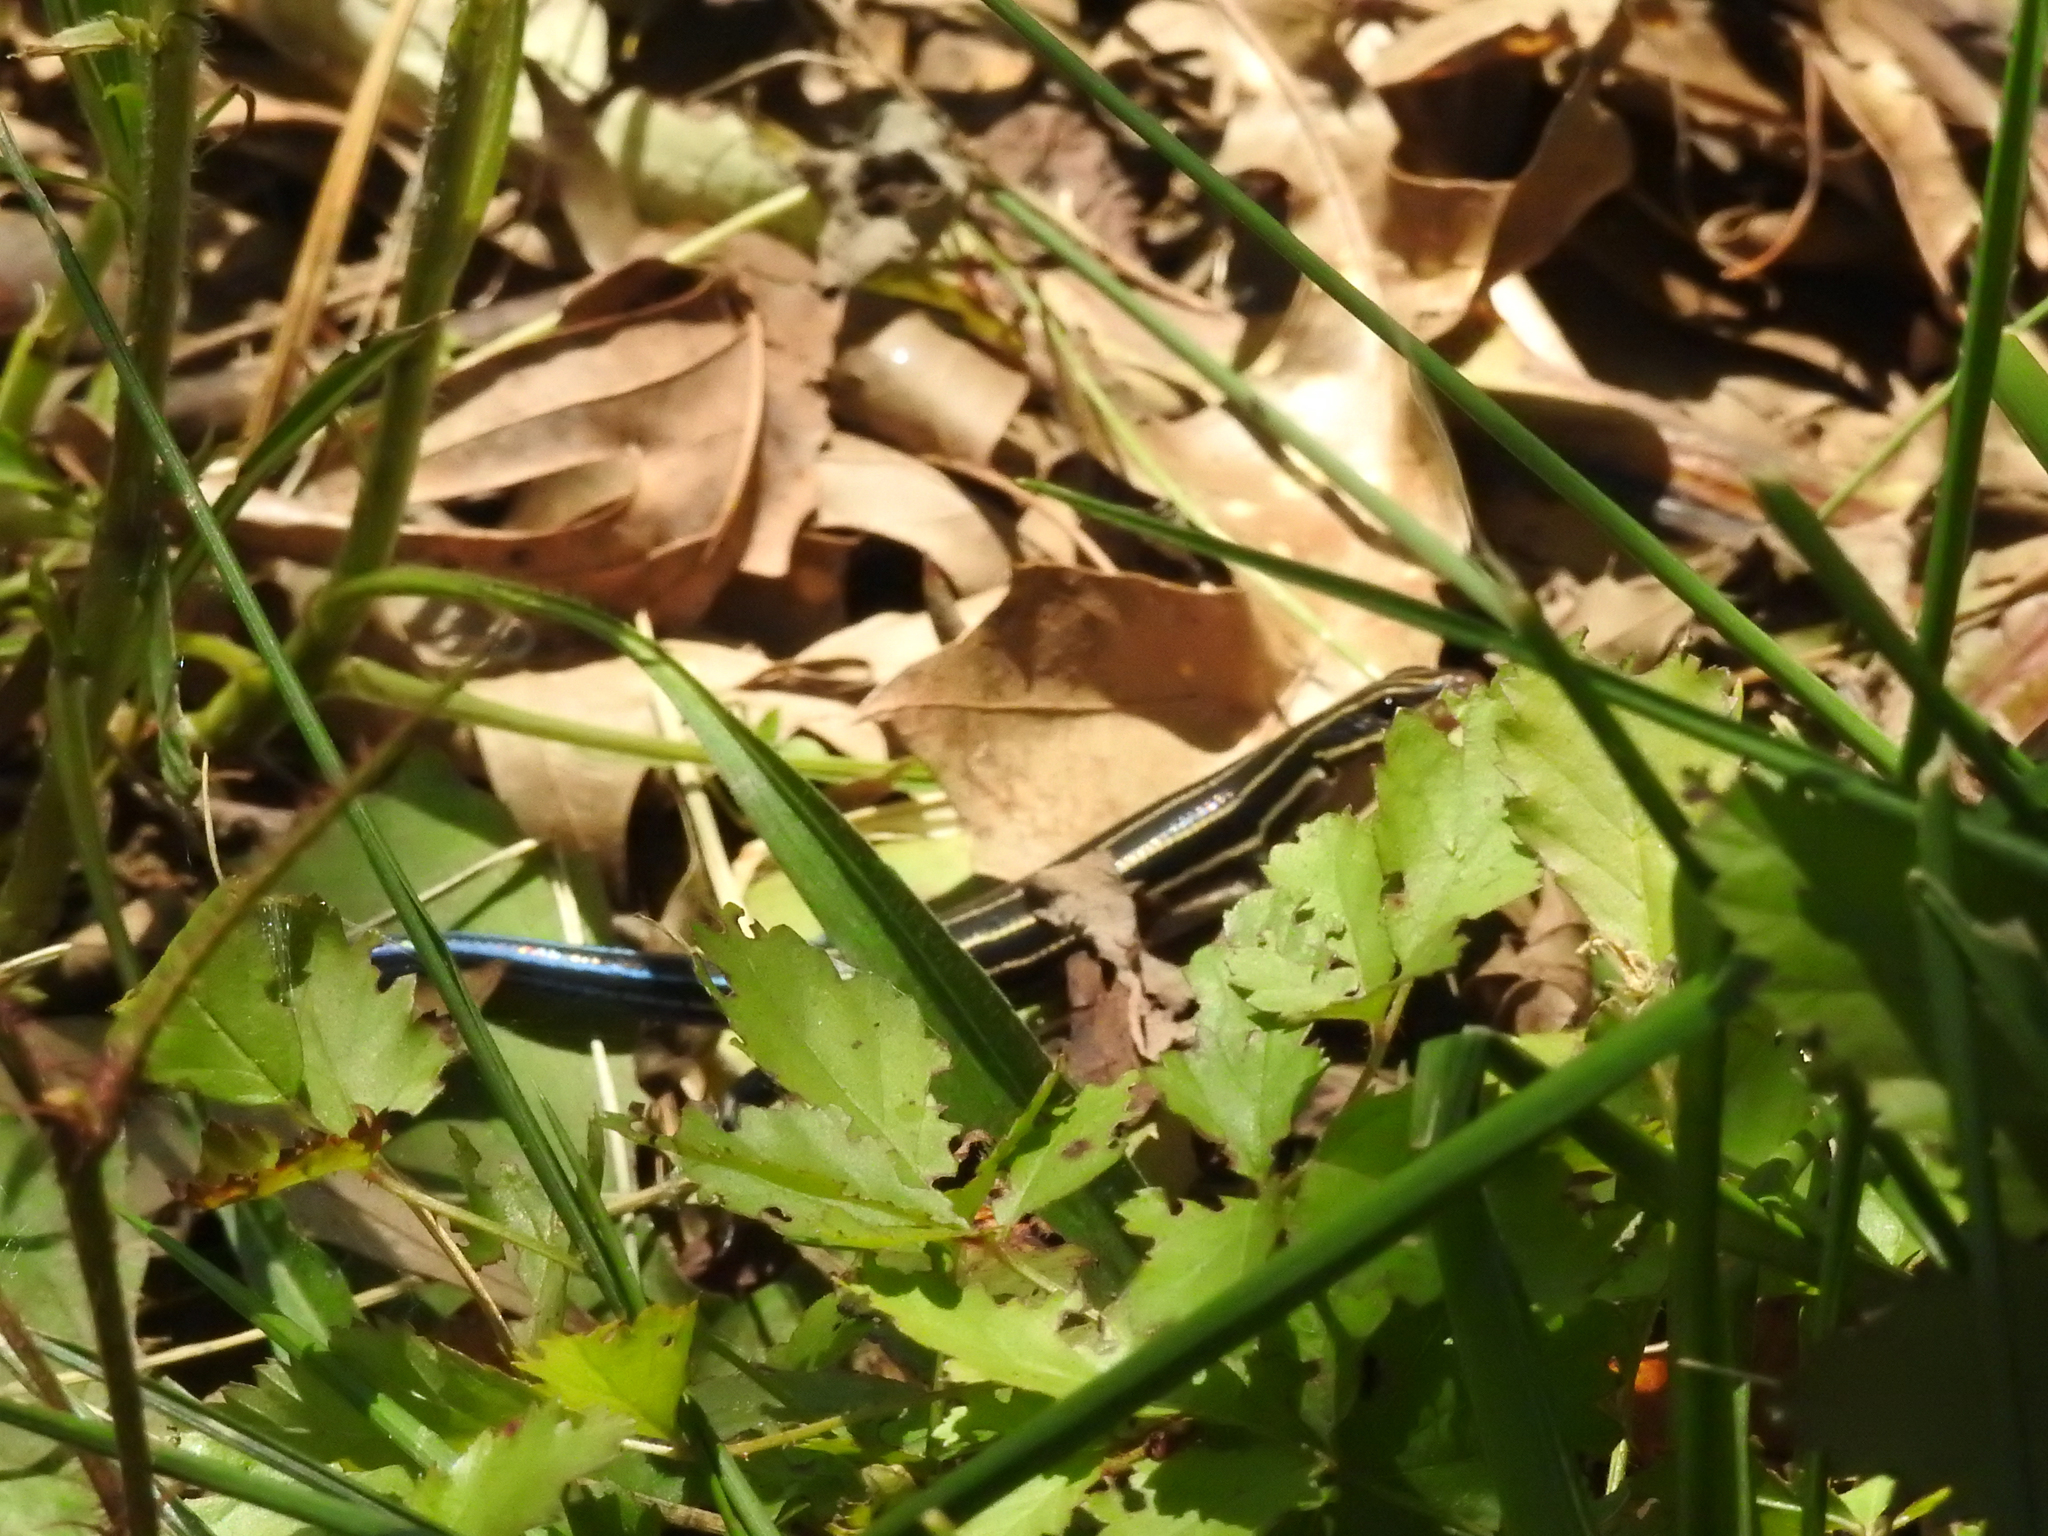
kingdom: Animalia
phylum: Chordata
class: Squamata
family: Scincidae
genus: Plestiodon
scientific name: Plestiodon laticeps
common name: Broadhead skink
